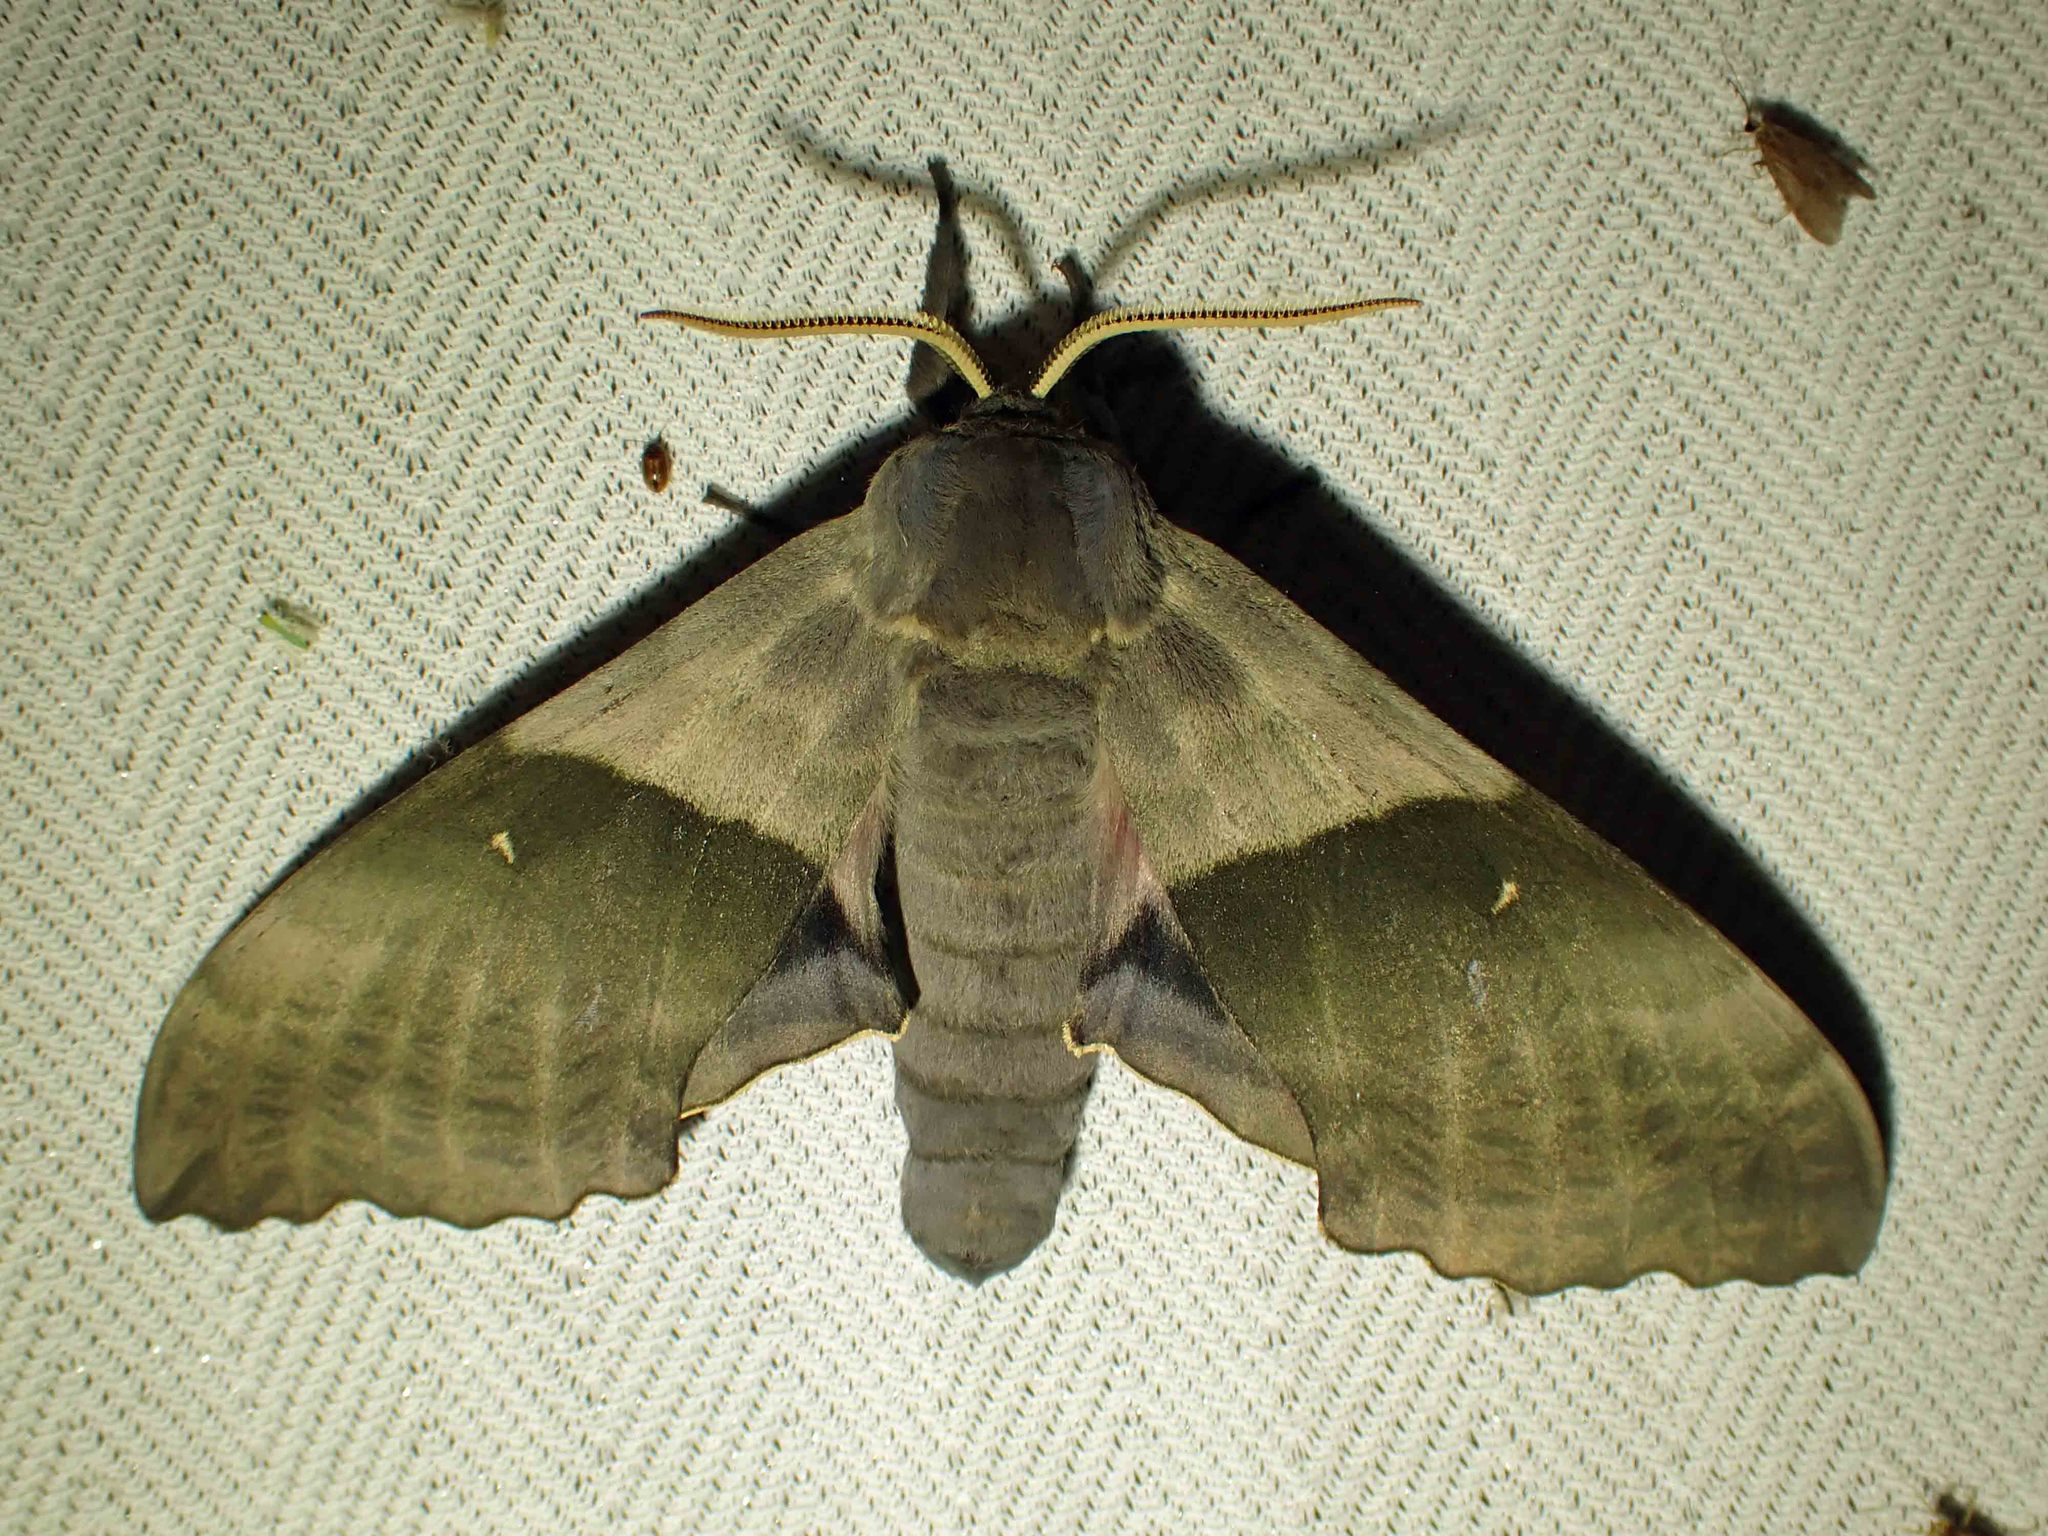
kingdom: Animalia
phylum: Arthropoda
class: Insecta
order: Lepidoptera
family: Sphingidae
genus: Pachysphinx
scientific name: Pachysphinx modesta
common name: Big poplar sphinx
